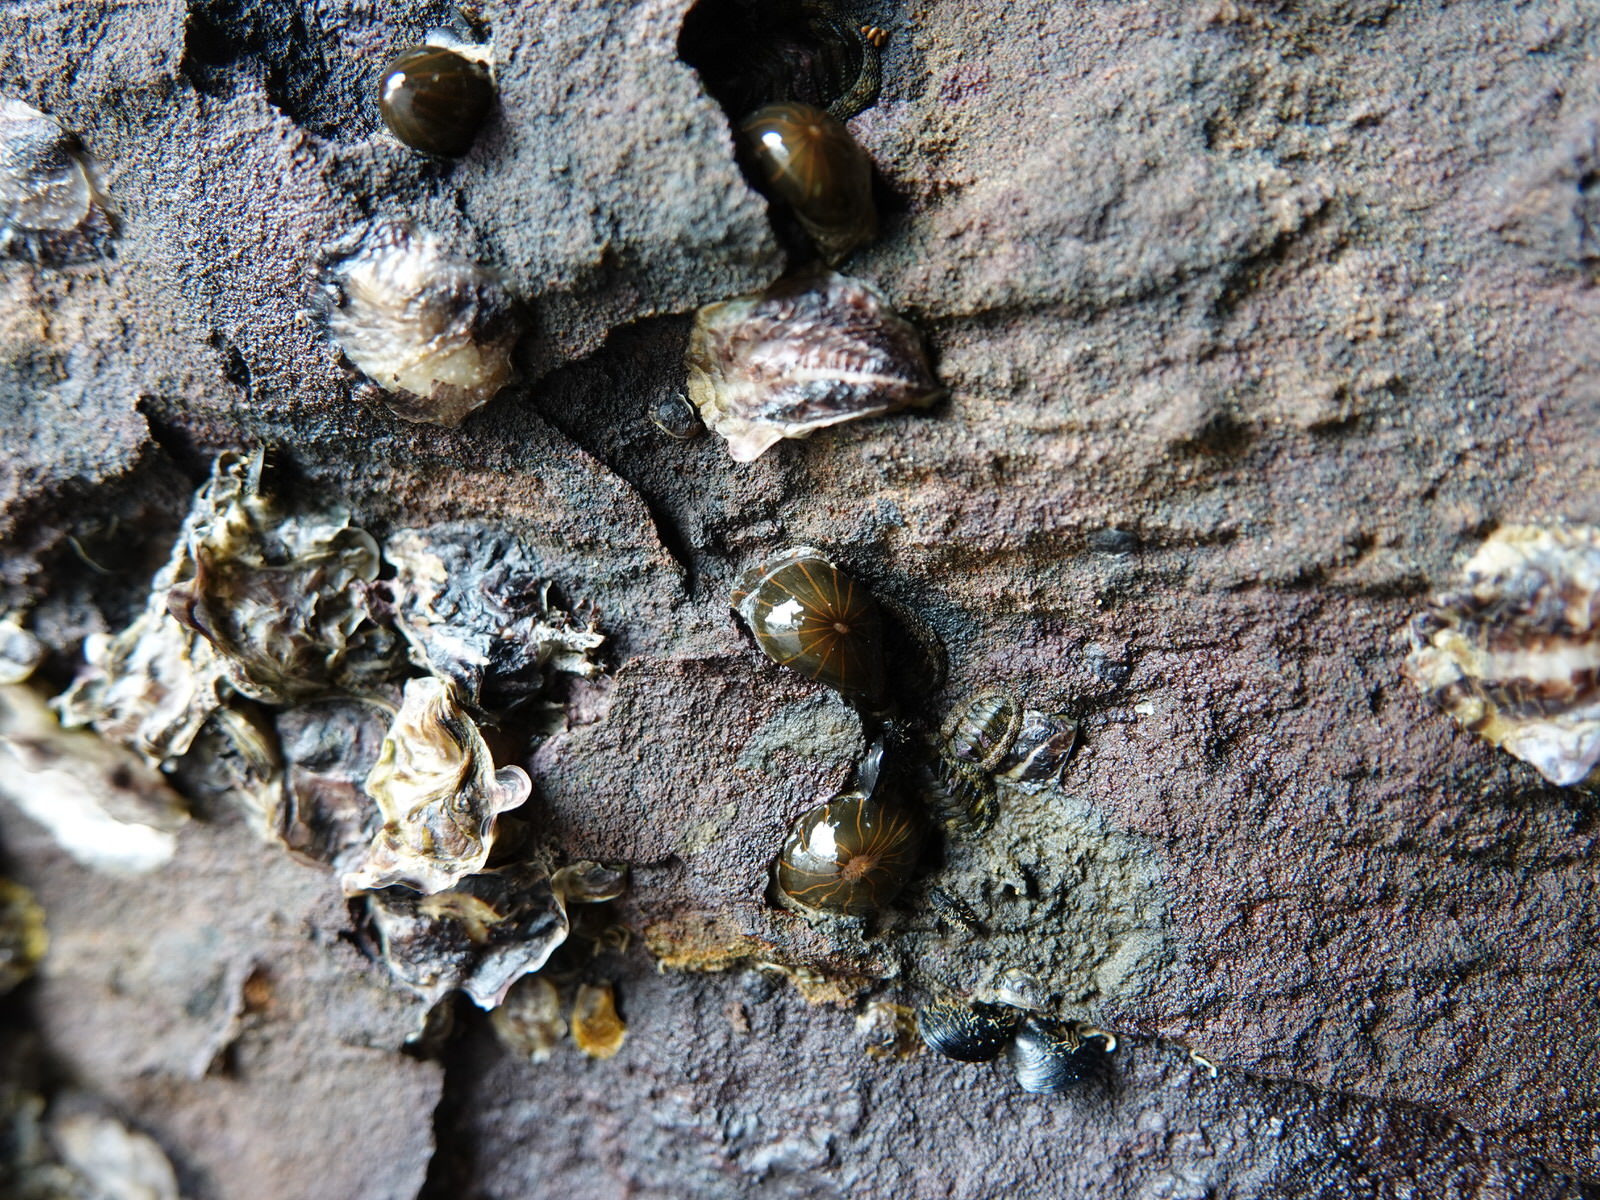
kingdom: Animalia
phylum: Cnidaria
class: Anthozoa
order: Actiniaria
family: Diadumenidae
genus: Diadumene
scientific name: Diadumene lineata
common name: Orange-striped anemone
